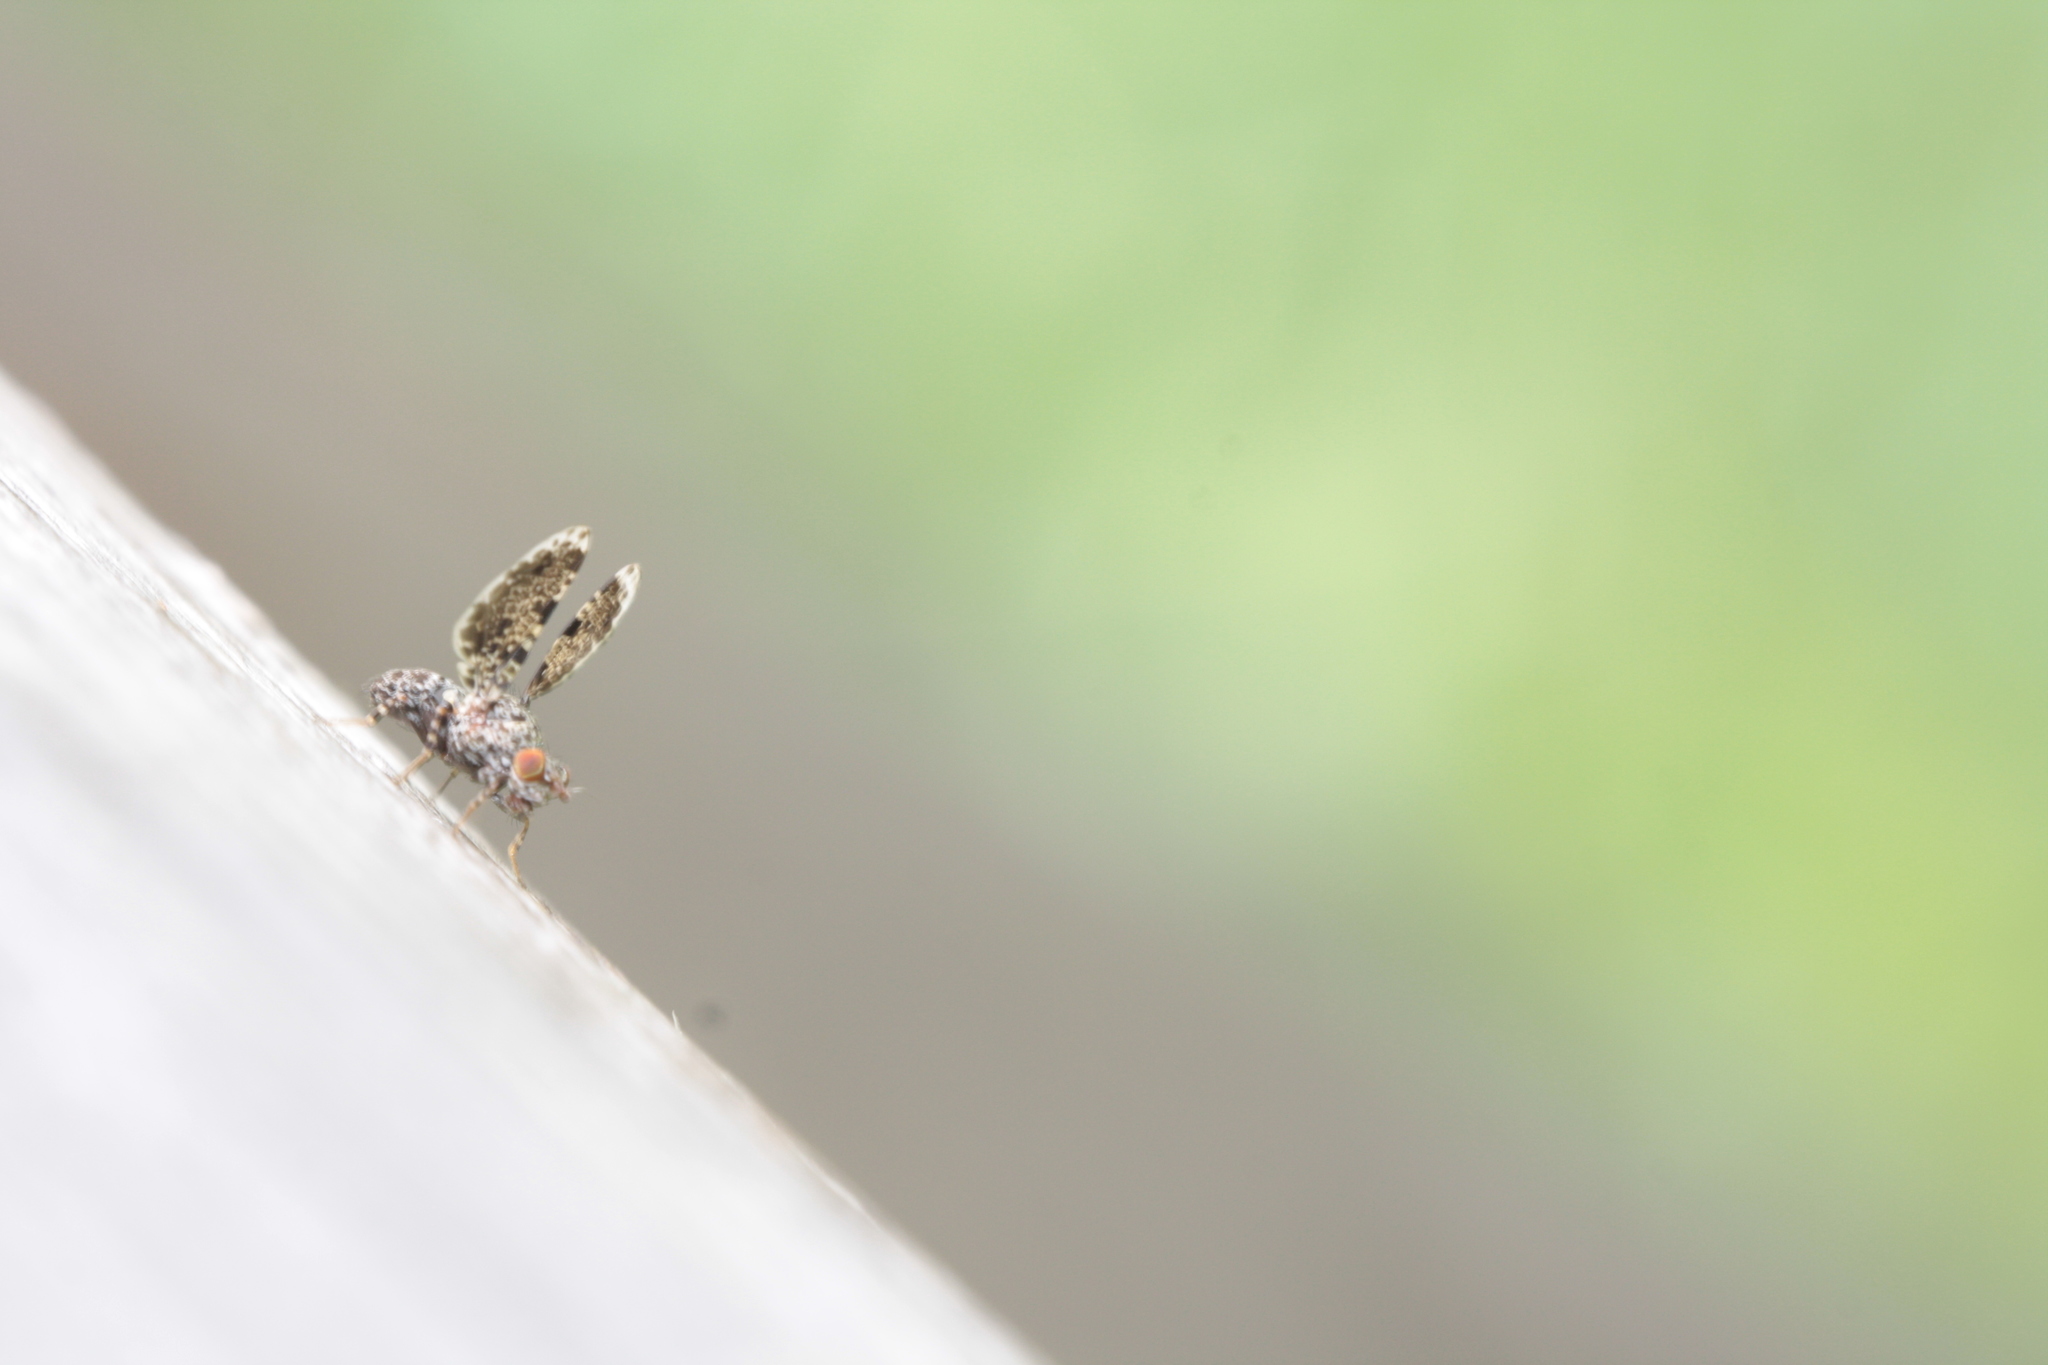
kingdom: Animalia
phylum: Arthropoda
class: Insecta
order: Diptera
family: Ulidiidae
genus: Callopistromyia
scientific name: Callopistromyia annulipes
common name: Peacock fly
